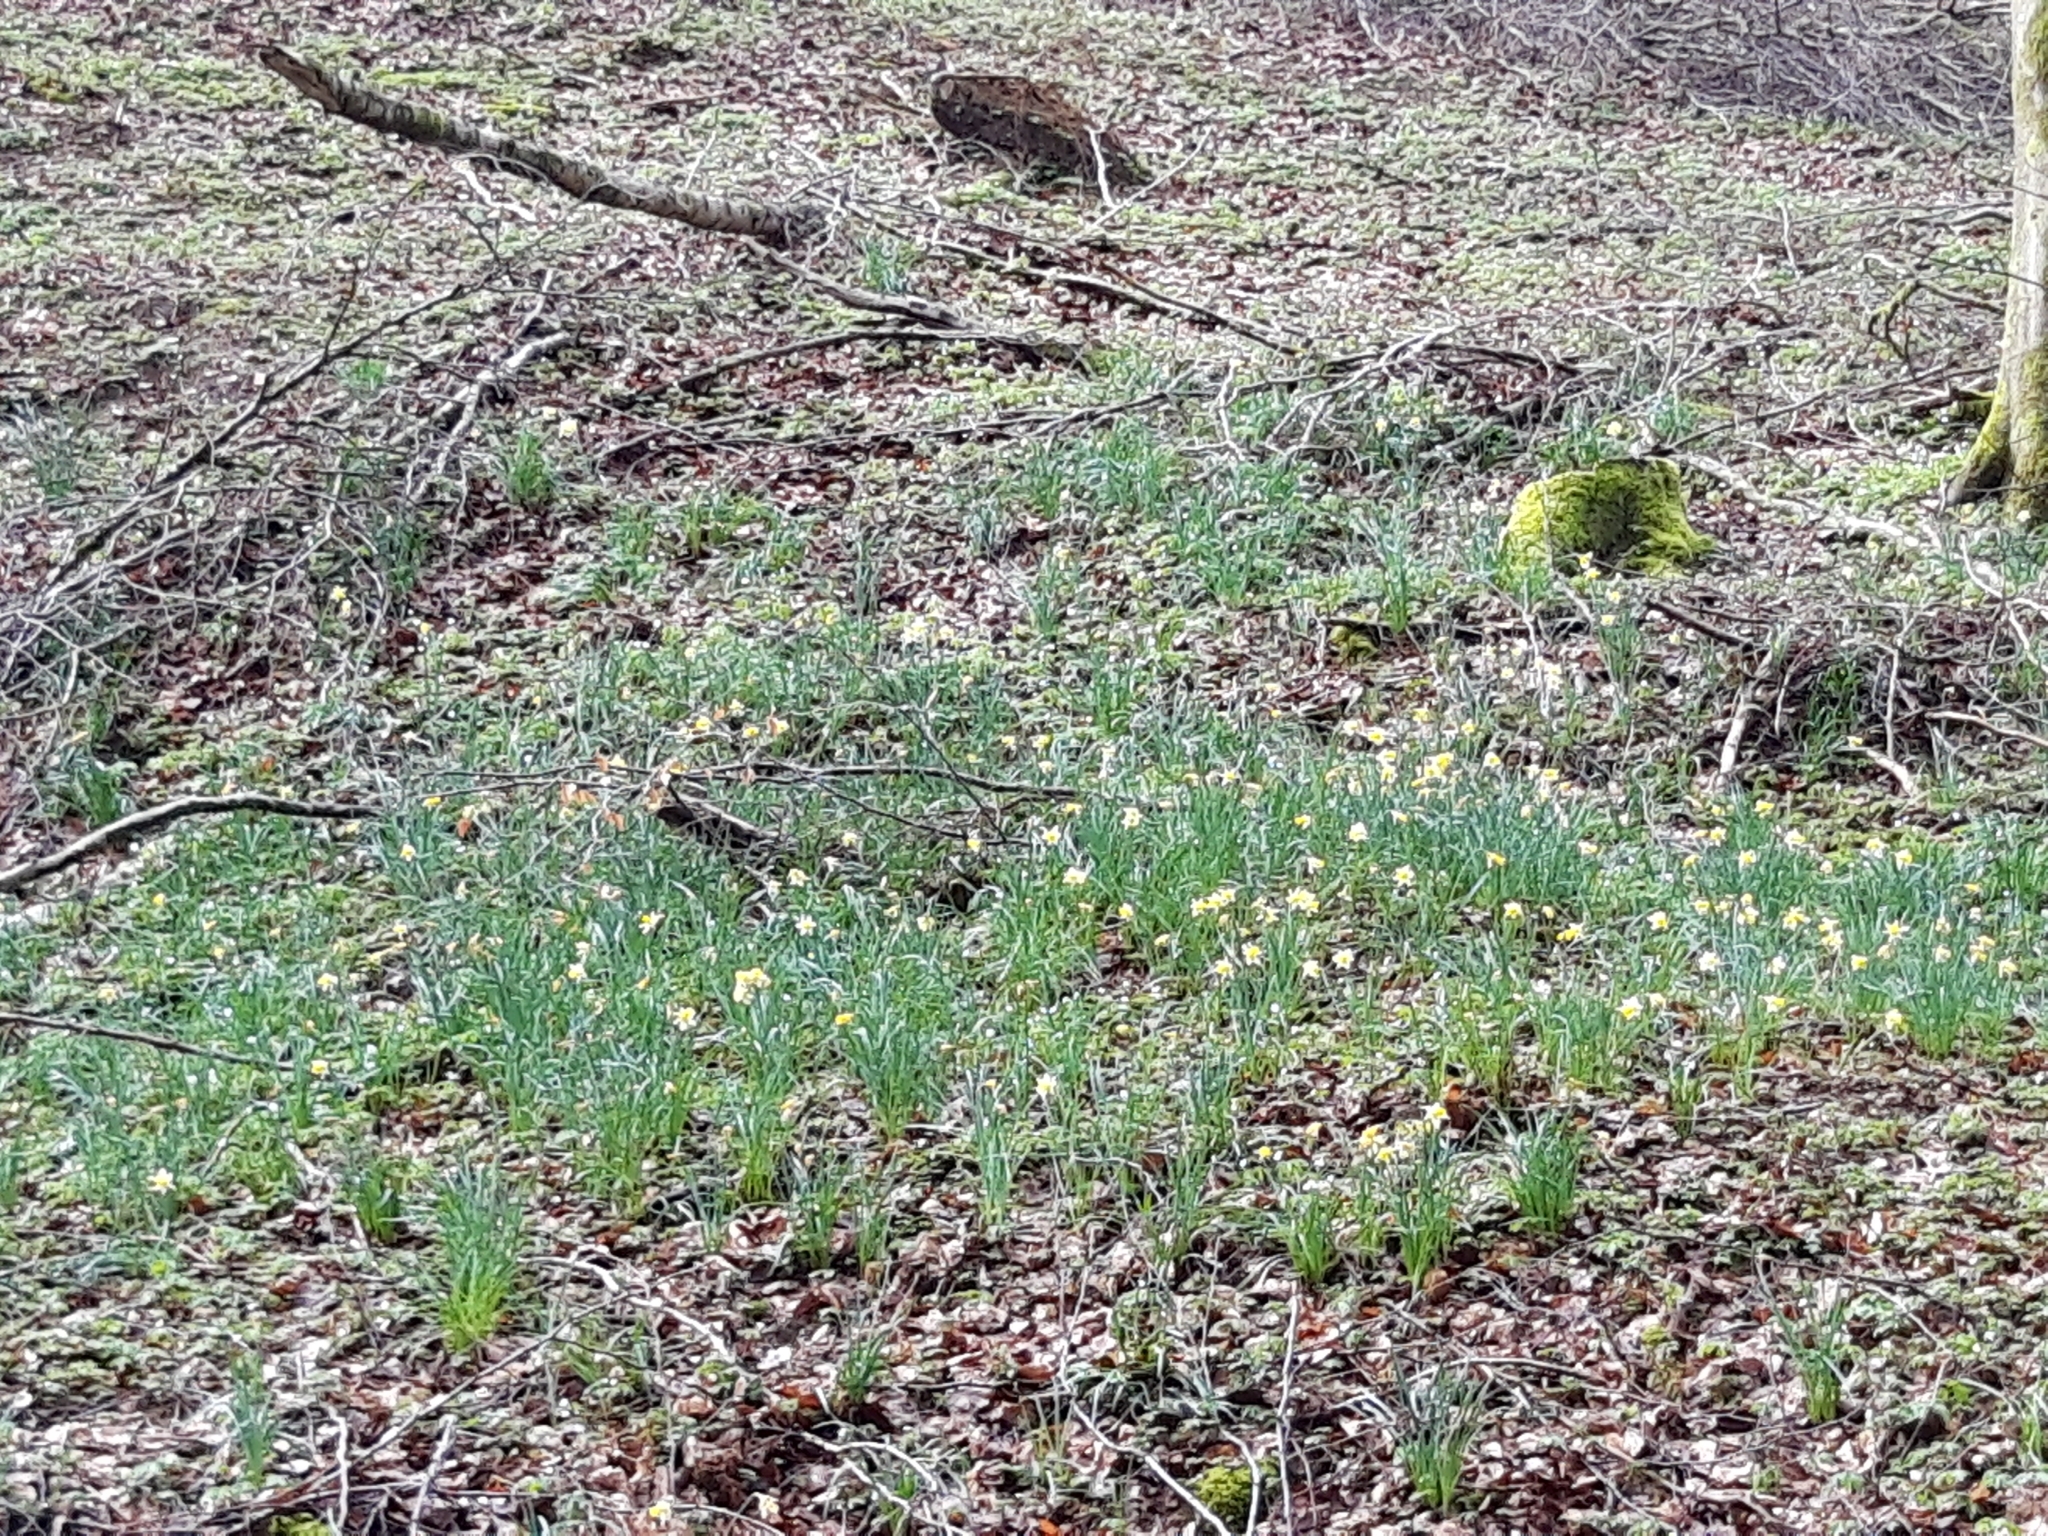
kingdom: Plantae
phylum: Tracheophyta
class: Liliopsida
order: Asparagales
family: Amaryllidaceae
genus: Narcissus
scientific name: Narcissus pseudonarcissus
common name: Daffodil
